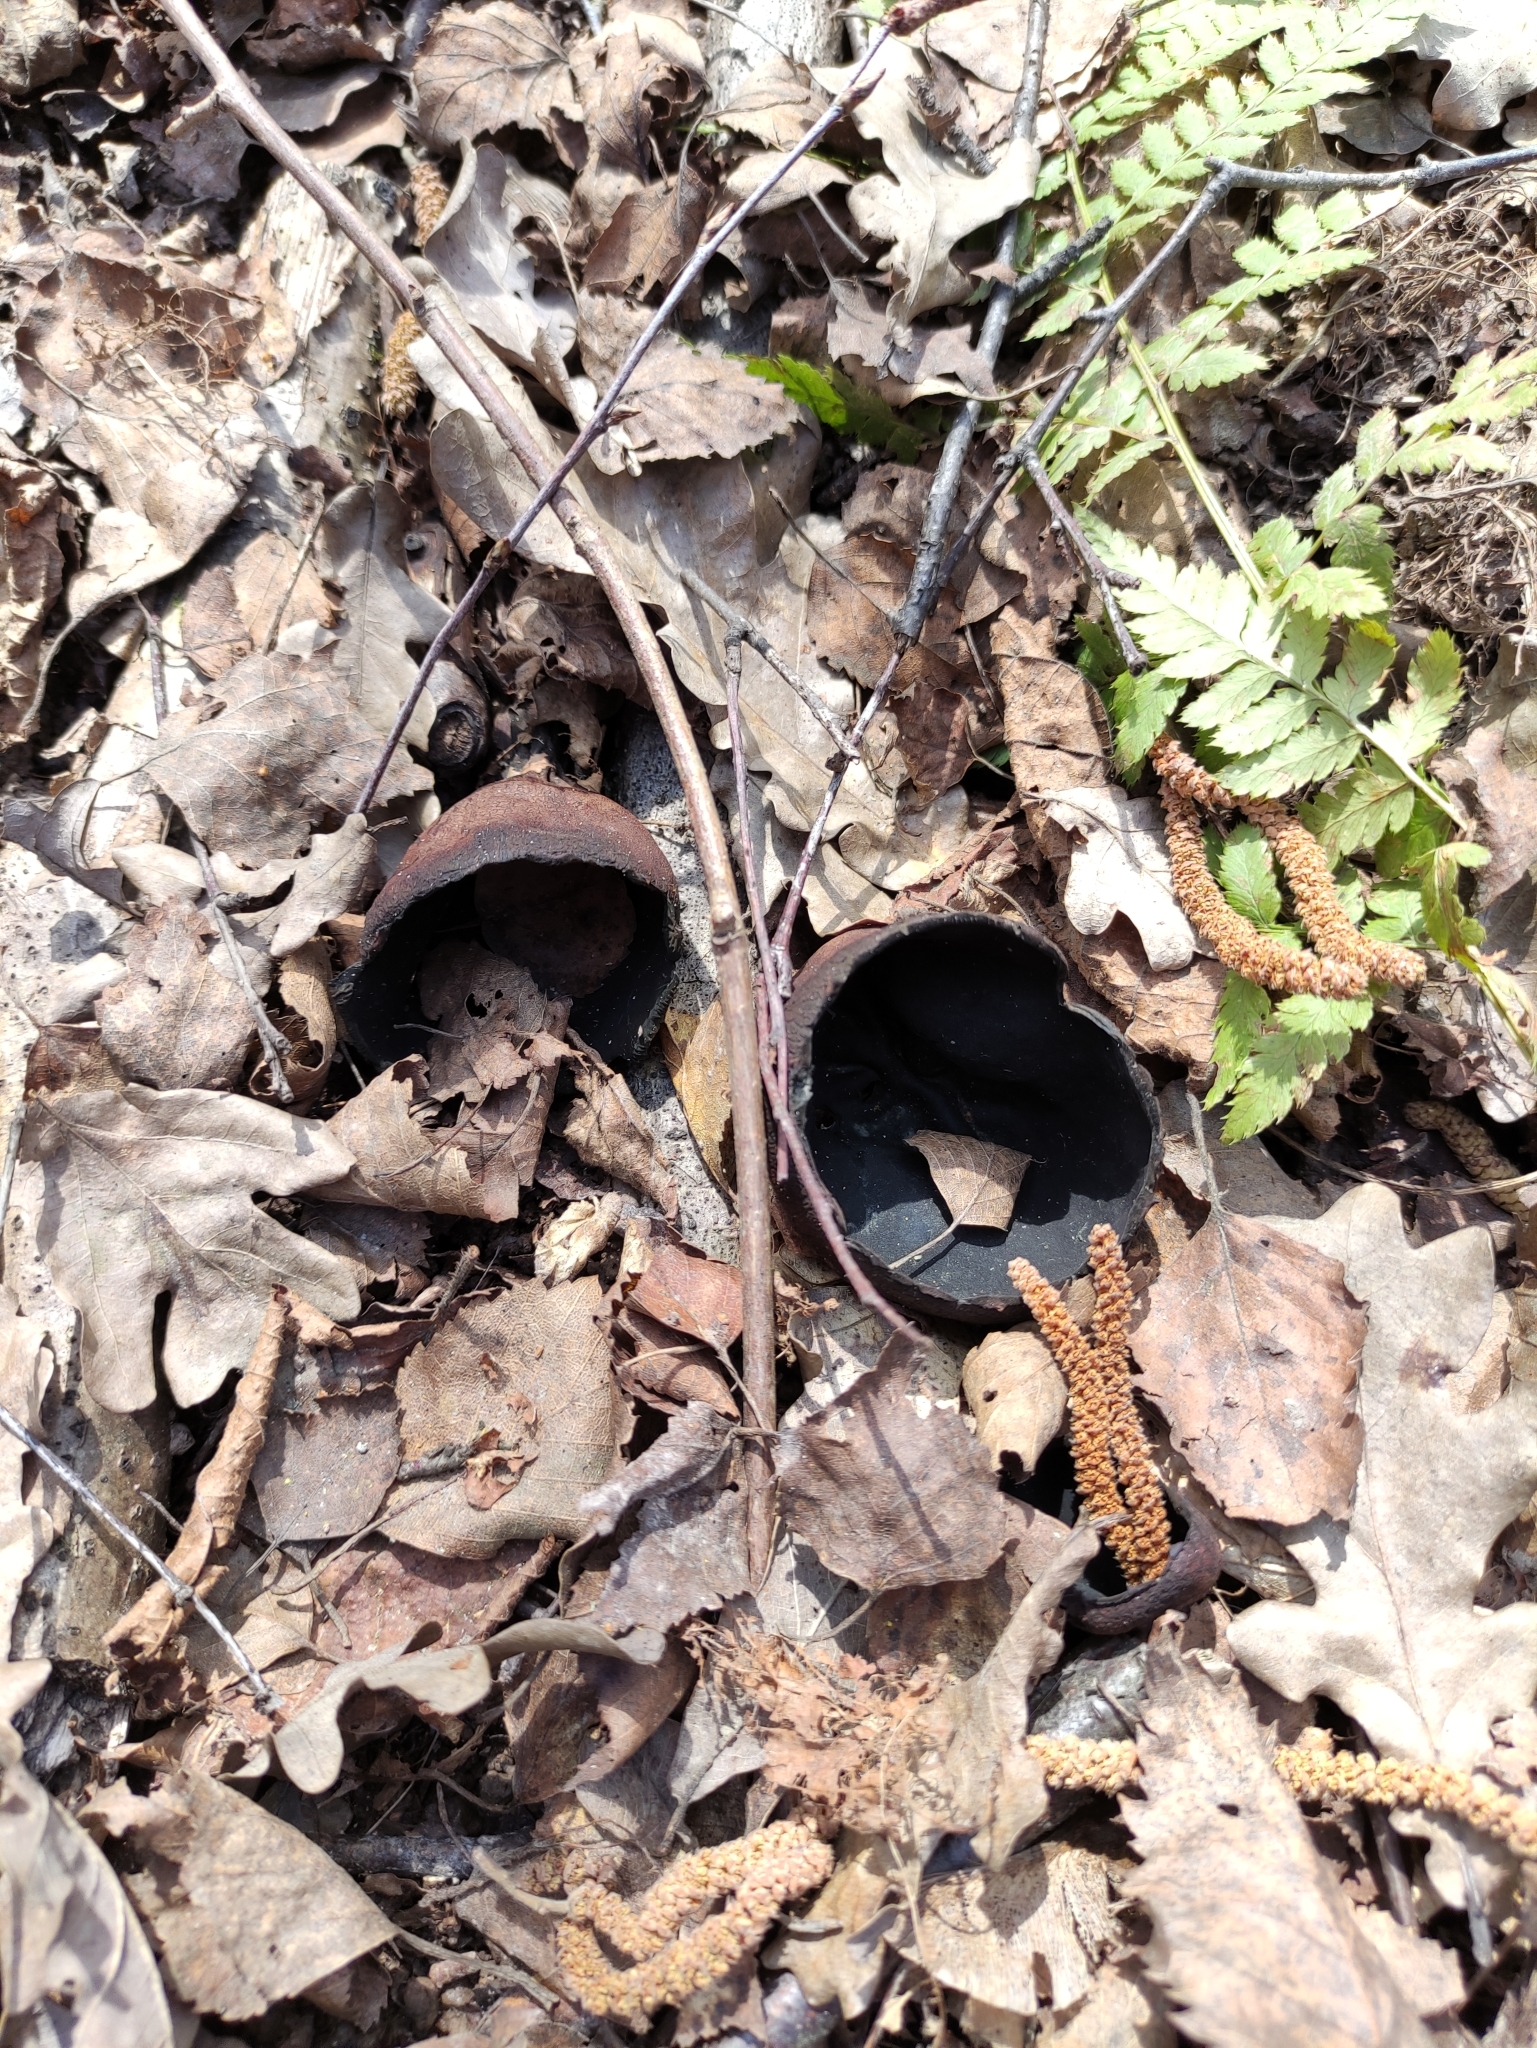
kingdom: Fungi
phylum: Ascomycota
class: Pezizomycetes
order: Pezizales
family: Sarcosomataceae
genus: Urnula
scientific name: Urnula craterium
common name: Devil's urn
